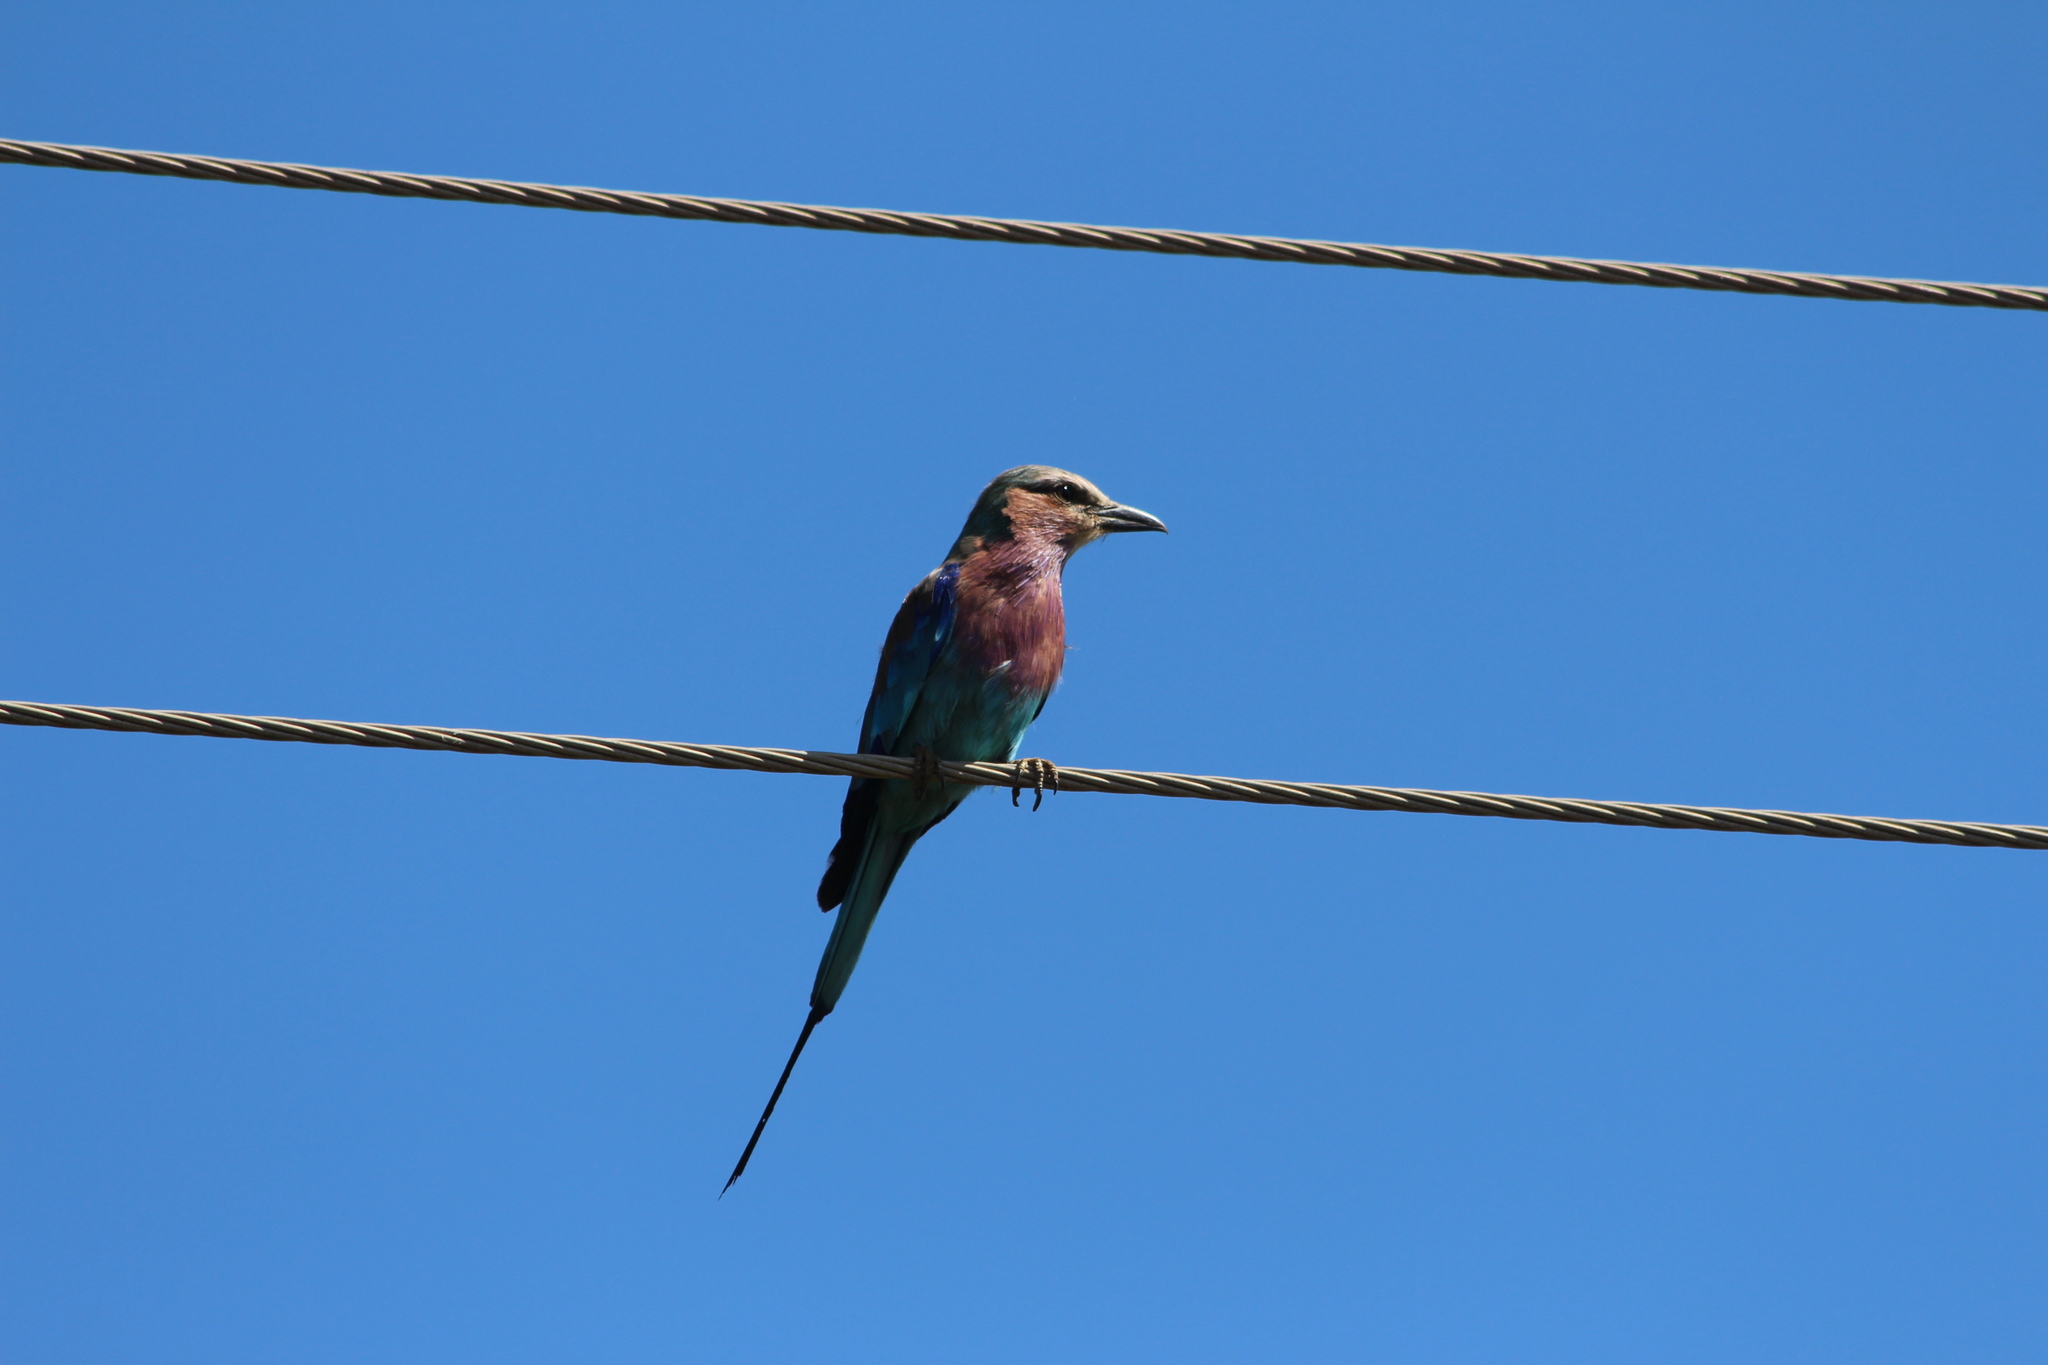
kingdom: Animalia
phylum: Chordata
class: Aves
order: Coraciiformes
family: Coraciidae
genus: Coracias
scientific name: Coracias caudatus
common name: Lilac-breasted roller
